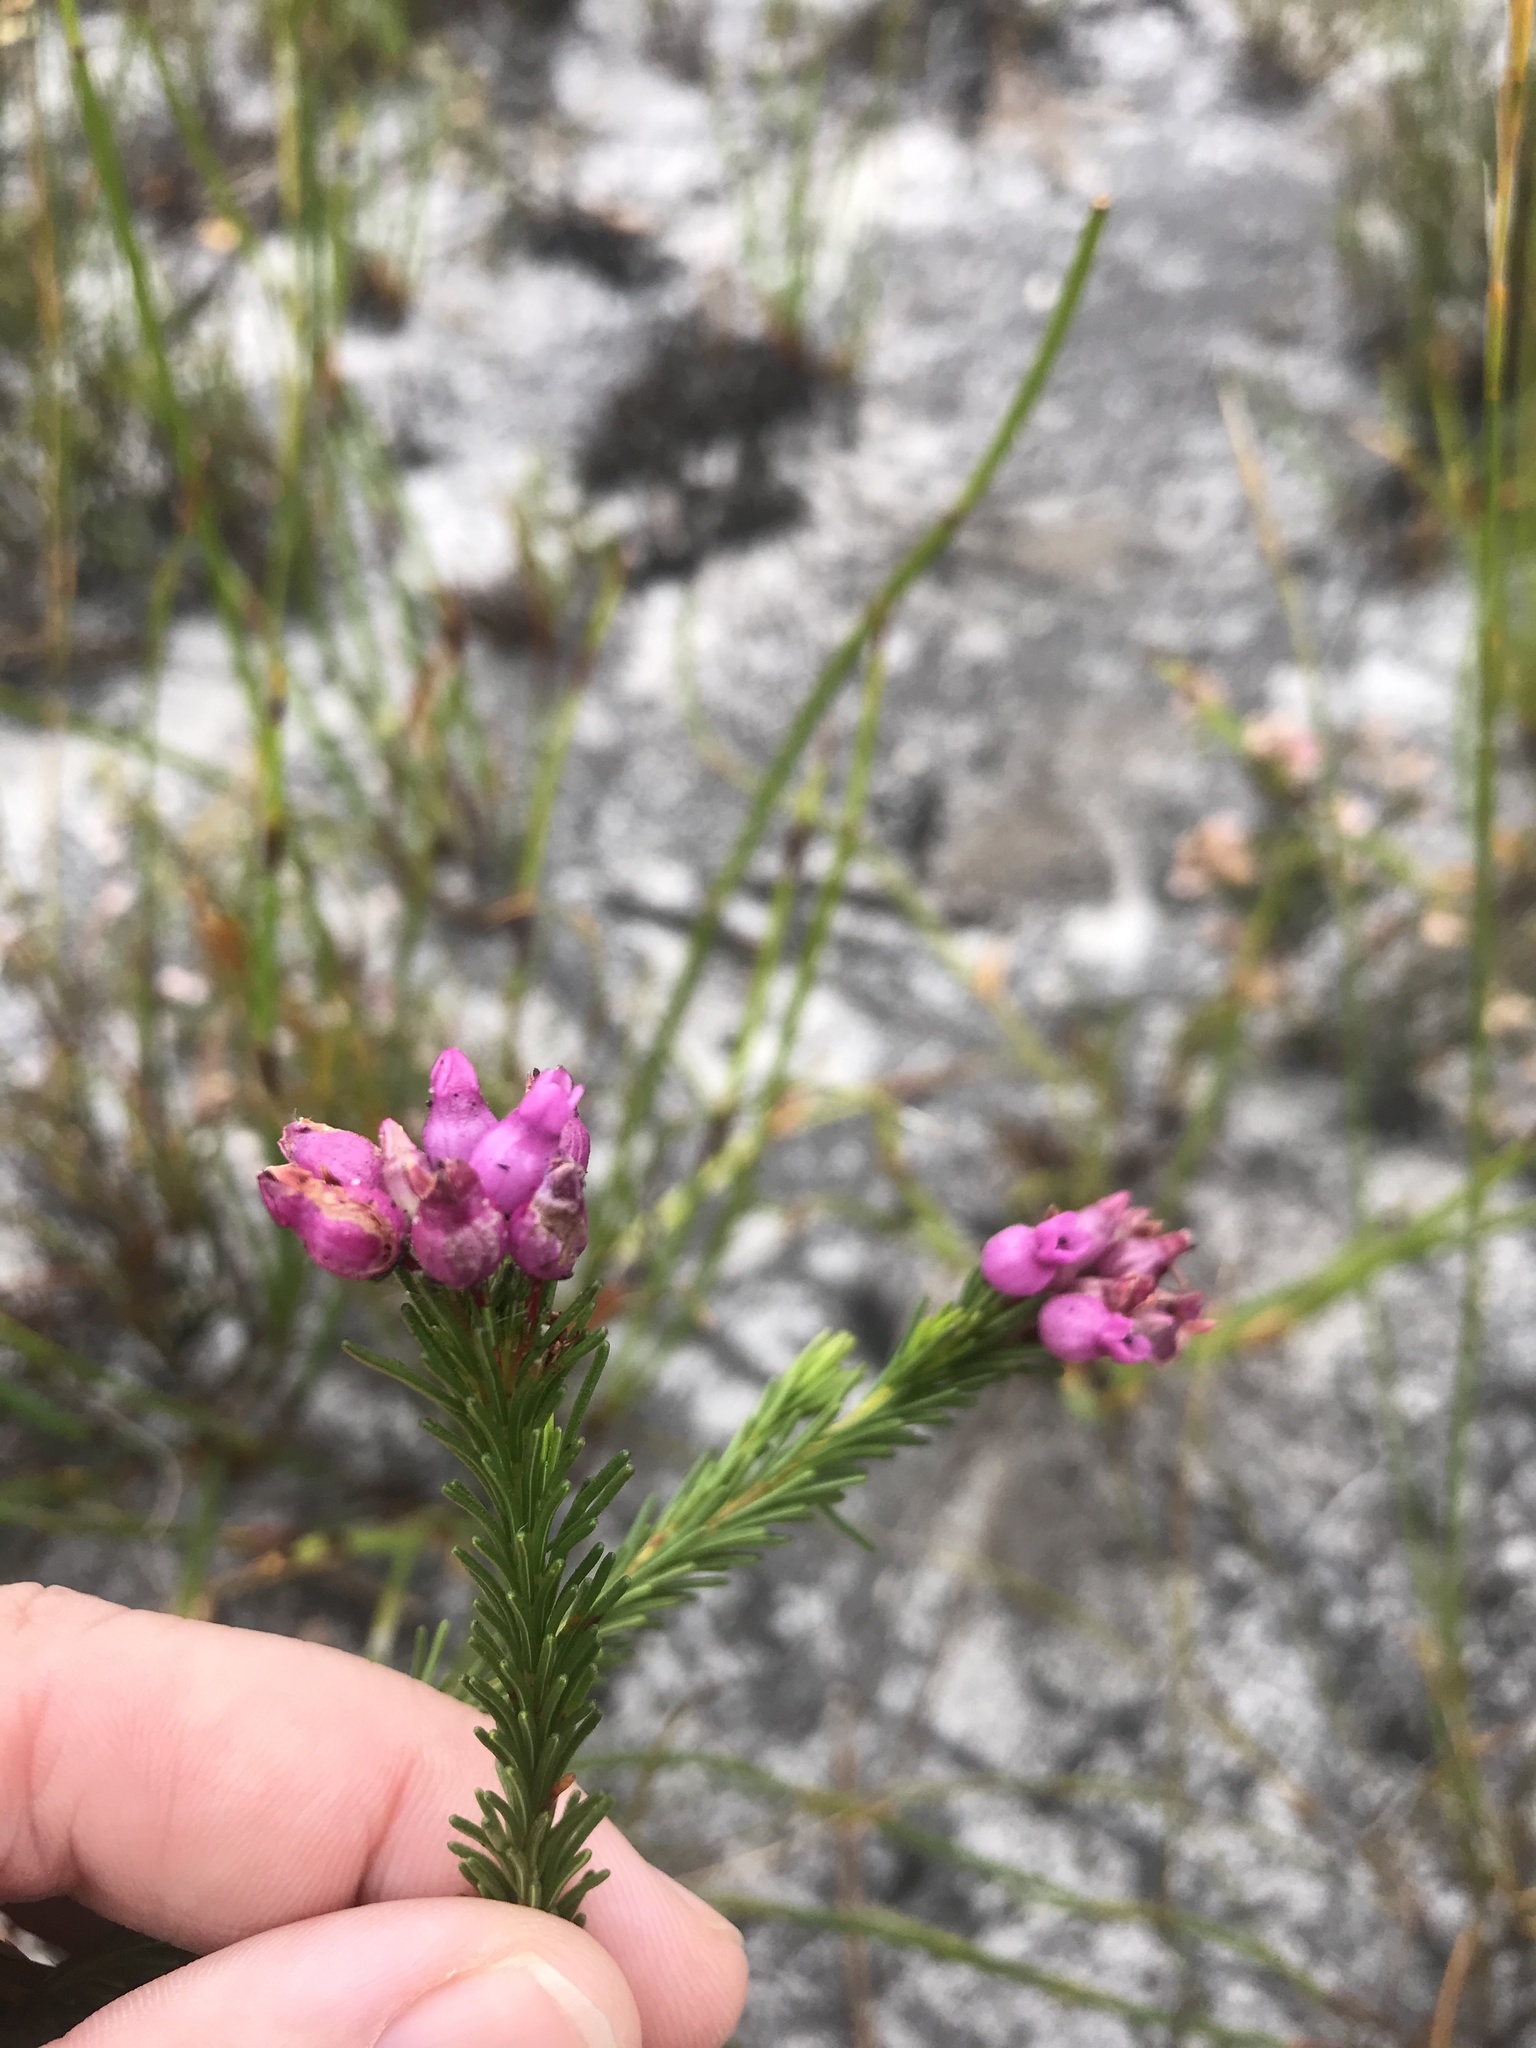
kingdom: Plantae
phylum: Tracheophyta
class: Magnoliopsida
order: Ericales
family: Ericaceae
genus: Erica
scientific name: Erica obliqua
